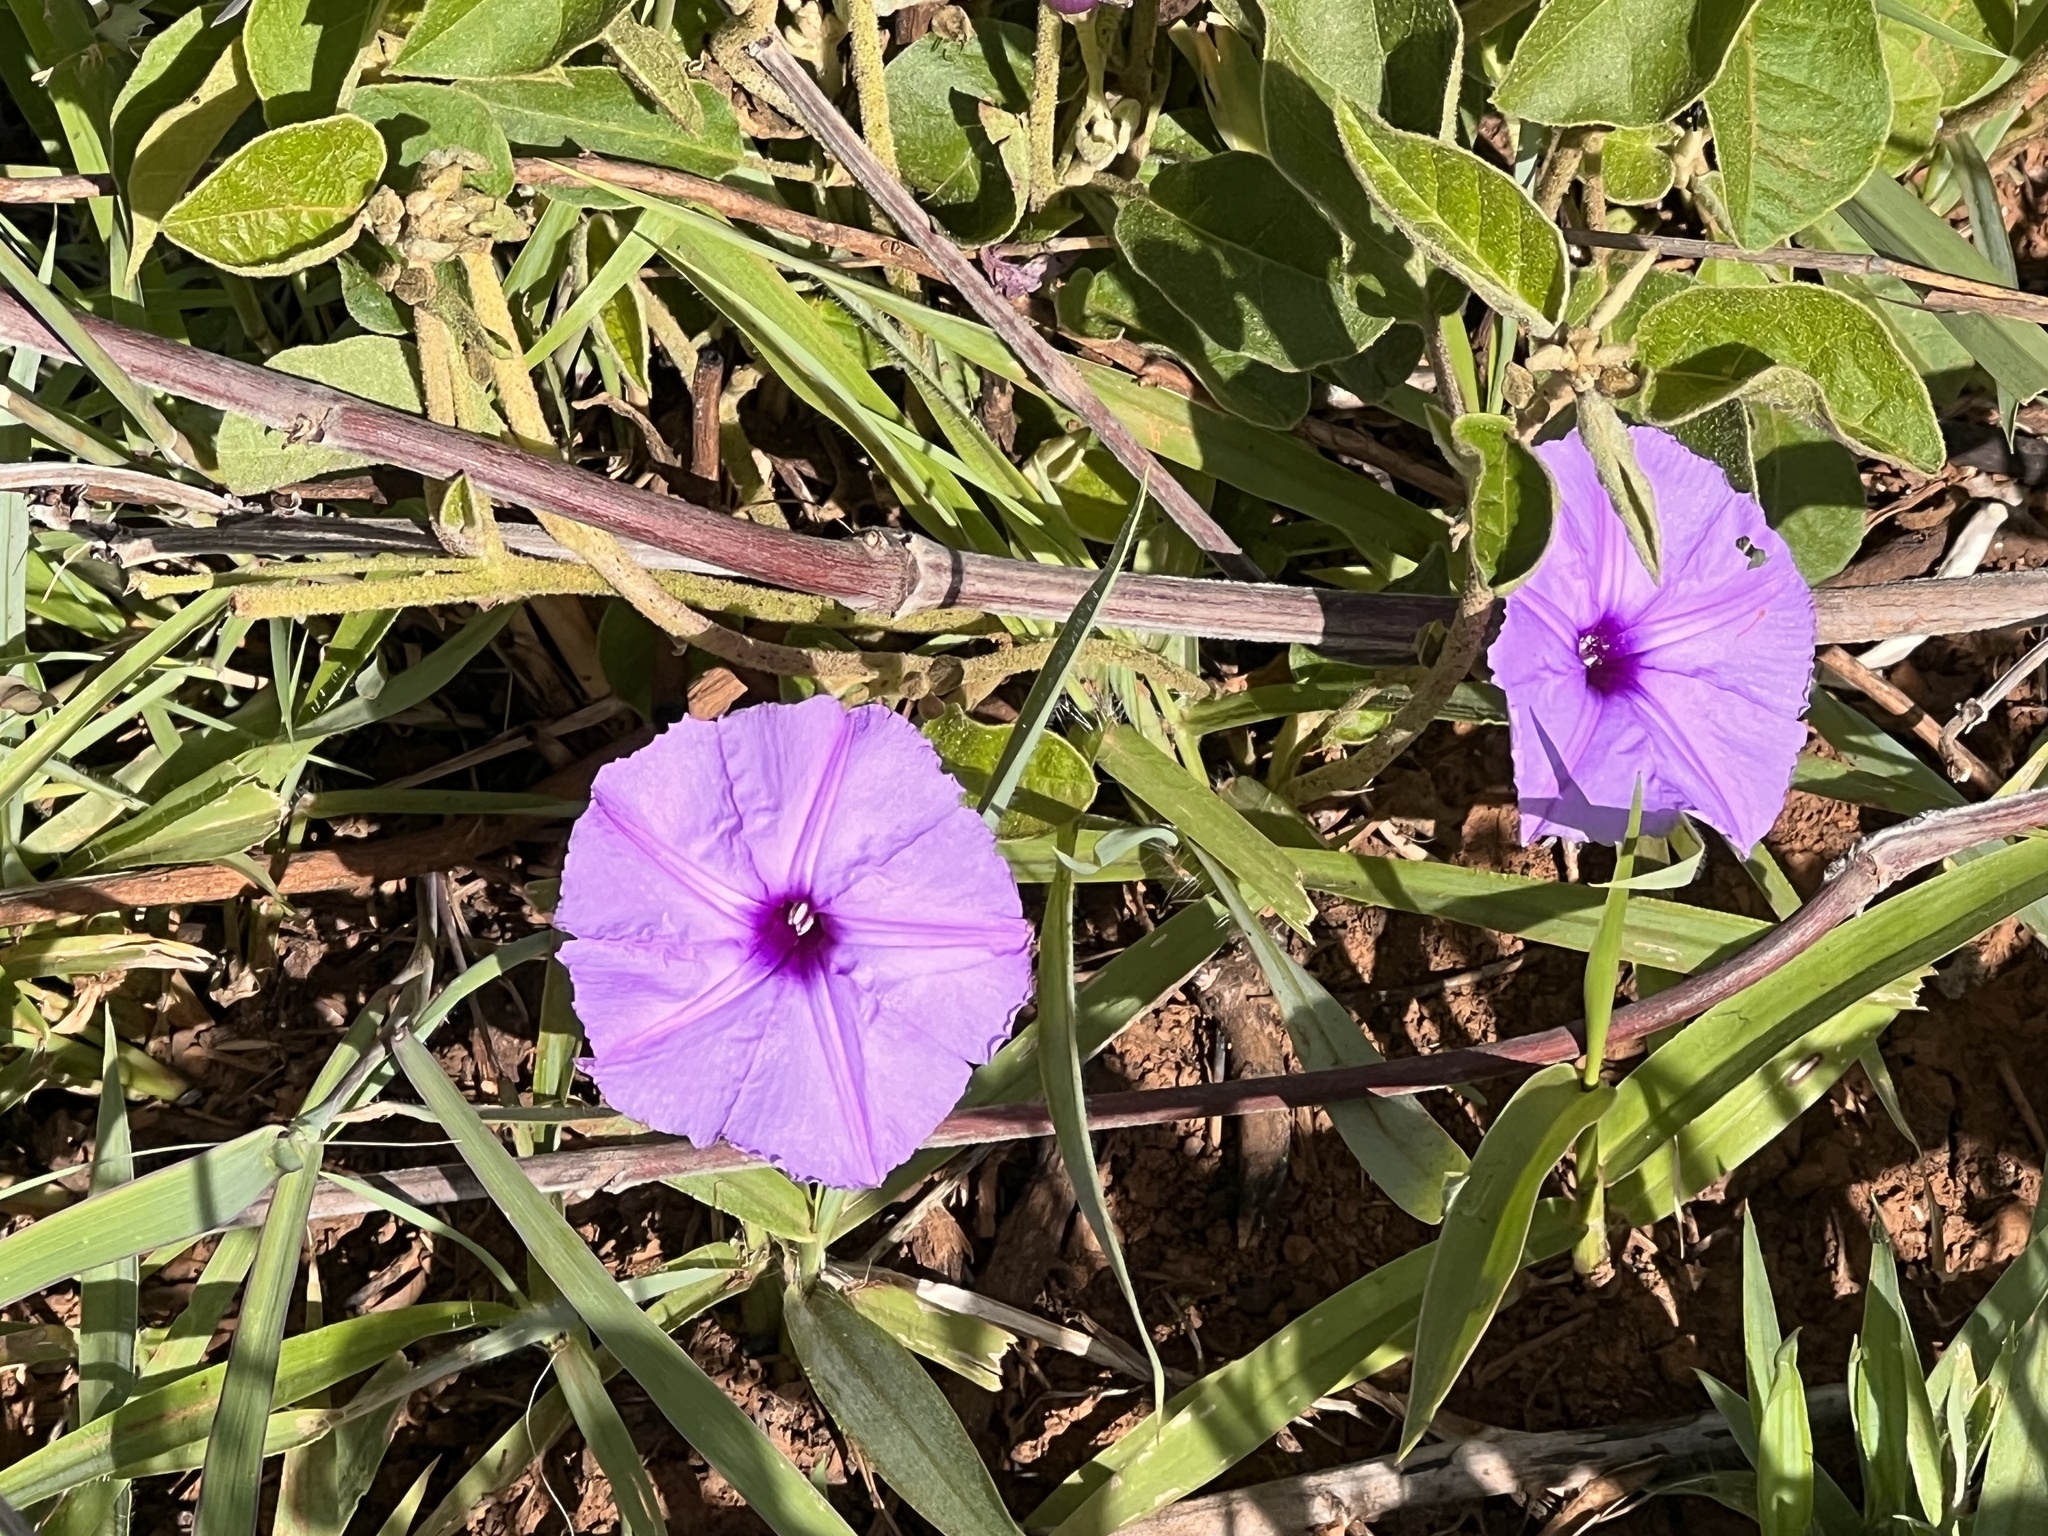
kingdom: Plantae
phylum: Tracheophyta
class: Magnoliopsida
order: Solanales
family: Convolvulaceae
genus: Ipomoea
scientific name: Ipomoea cairica
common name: Mile a minute vine
